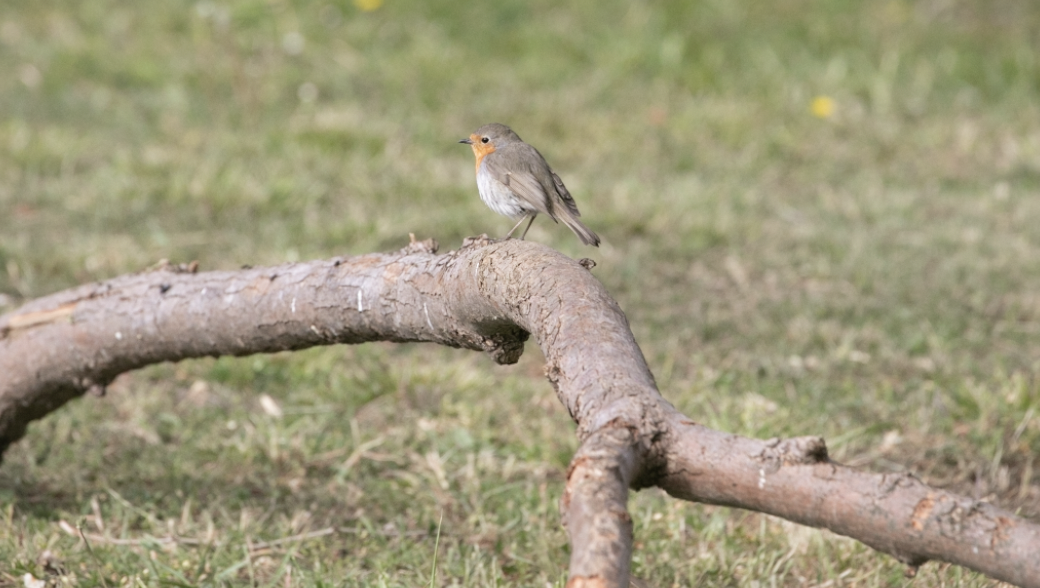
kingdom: Animalia
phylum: Chordata
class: Aves
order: Passeriformes
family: Muscicapidae
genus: Erithacus
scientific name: Erithacus rubecula
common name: European robin
